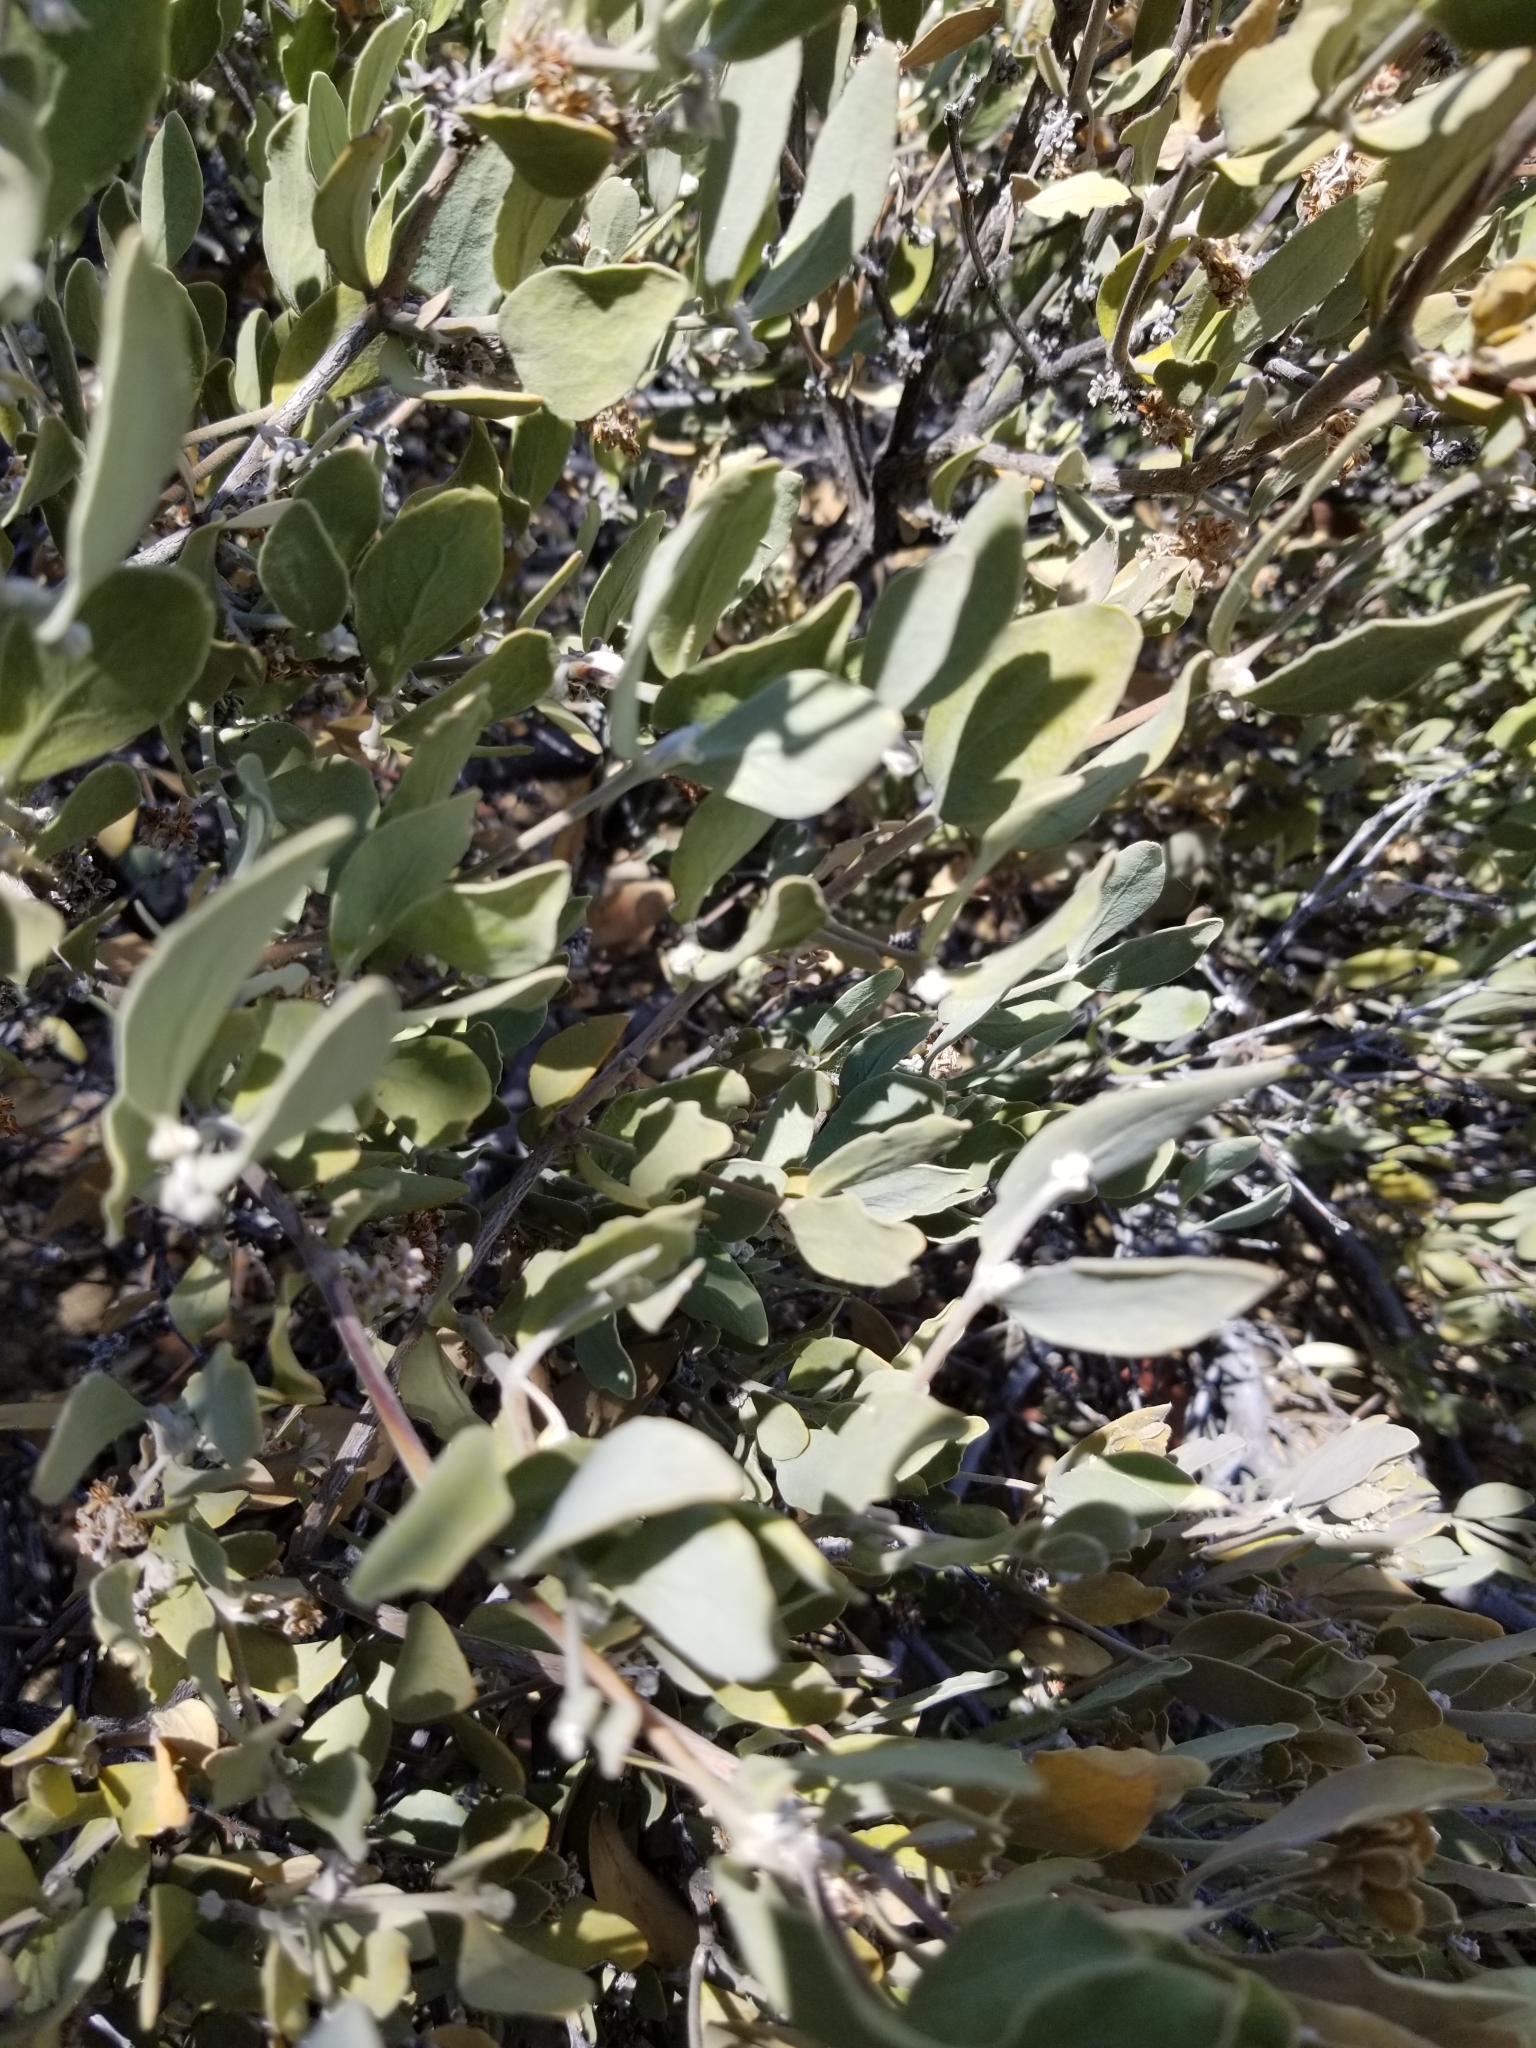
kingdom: Plantae
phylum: Tracheophyta
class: Magnoliopsida
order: Caryophyllales
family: Simmondsiaceae
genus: Simmondsia
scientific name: Simmondsia chinensis
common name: Jojoba
